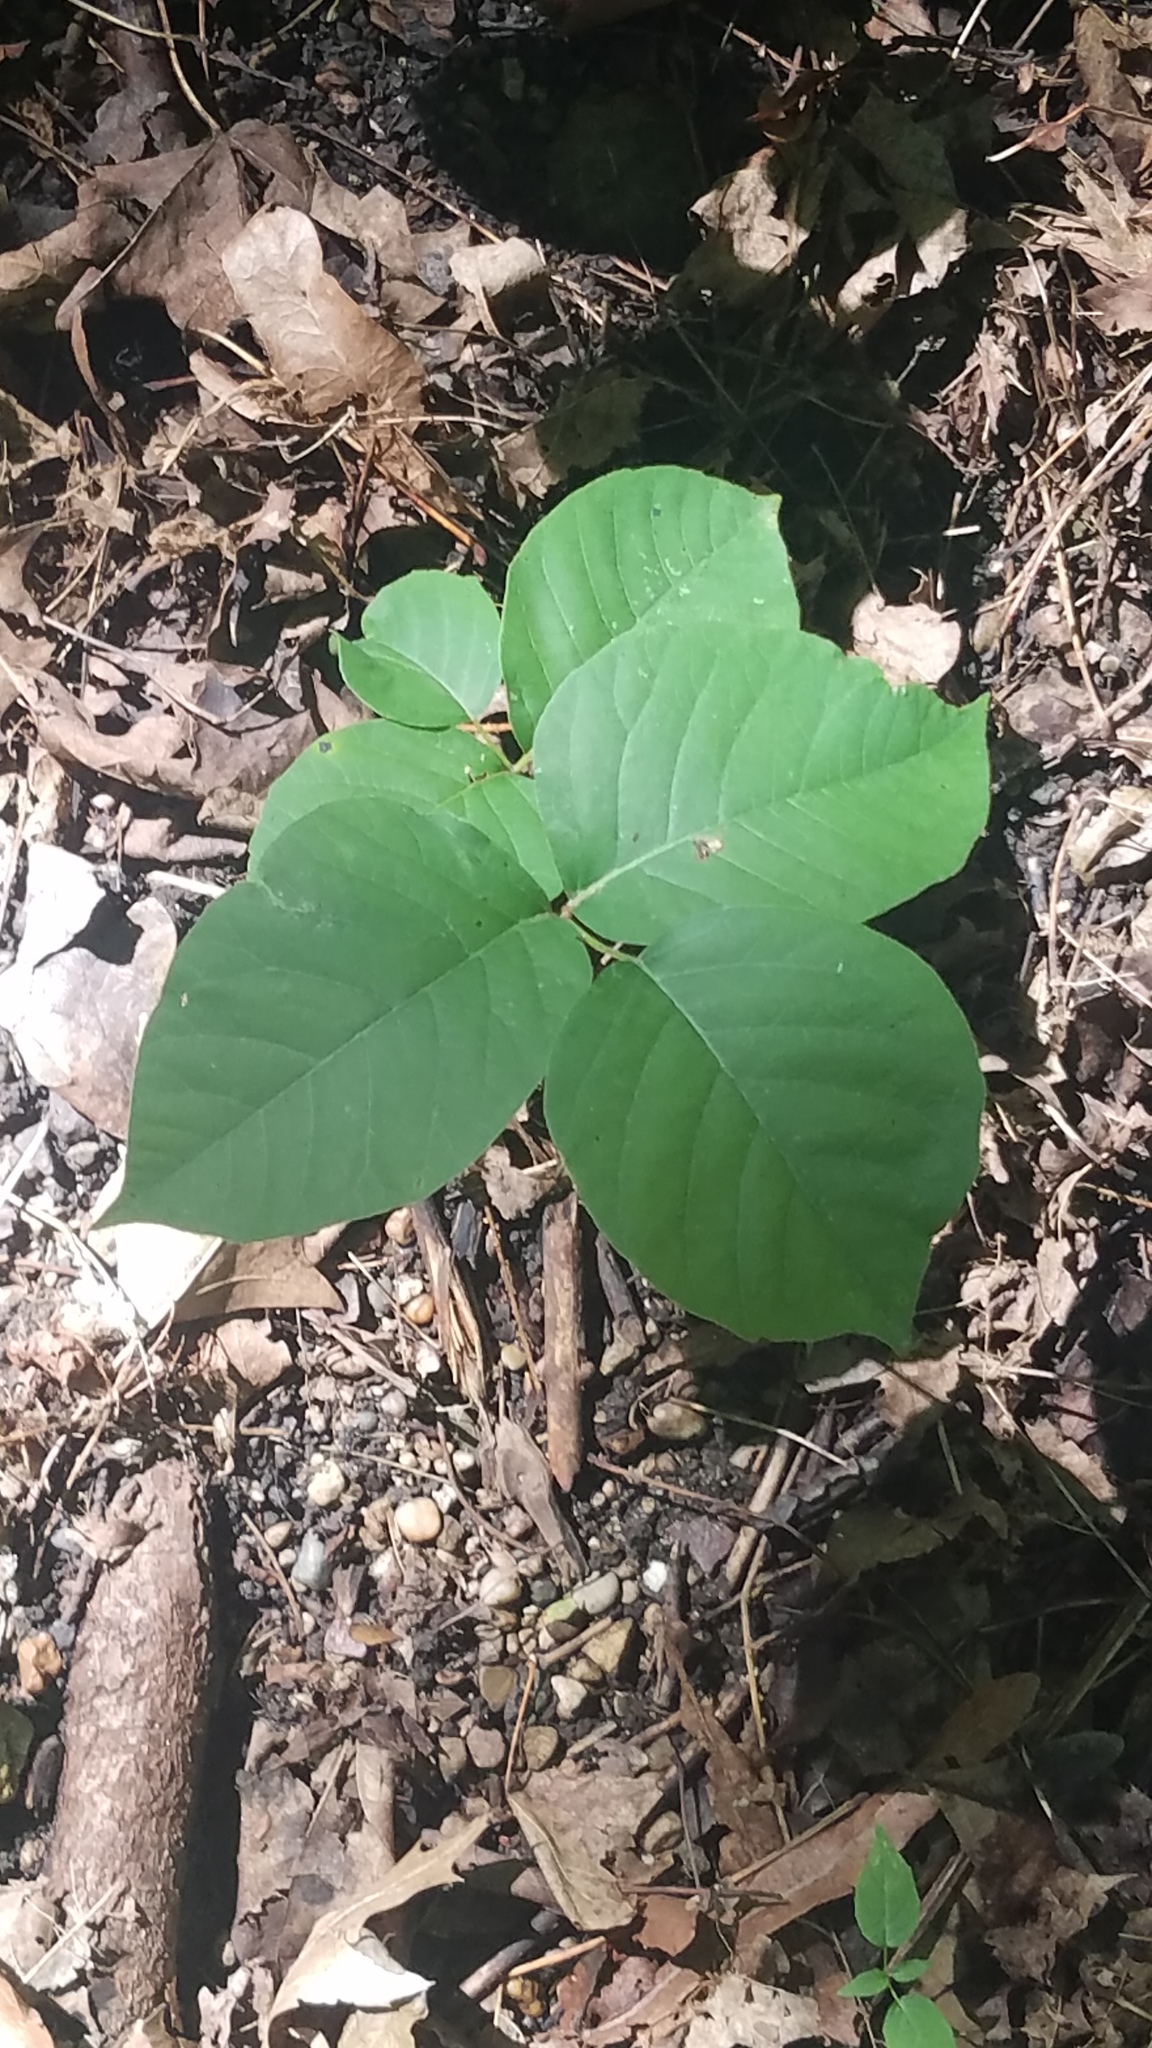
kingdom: Plantae
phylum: Tracheophyta
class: Magnoliopsida
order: Sapindales
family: Anacardiaceae
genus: Toxicodendron
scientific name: Toxicodendron radicans
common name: Poison ivy
